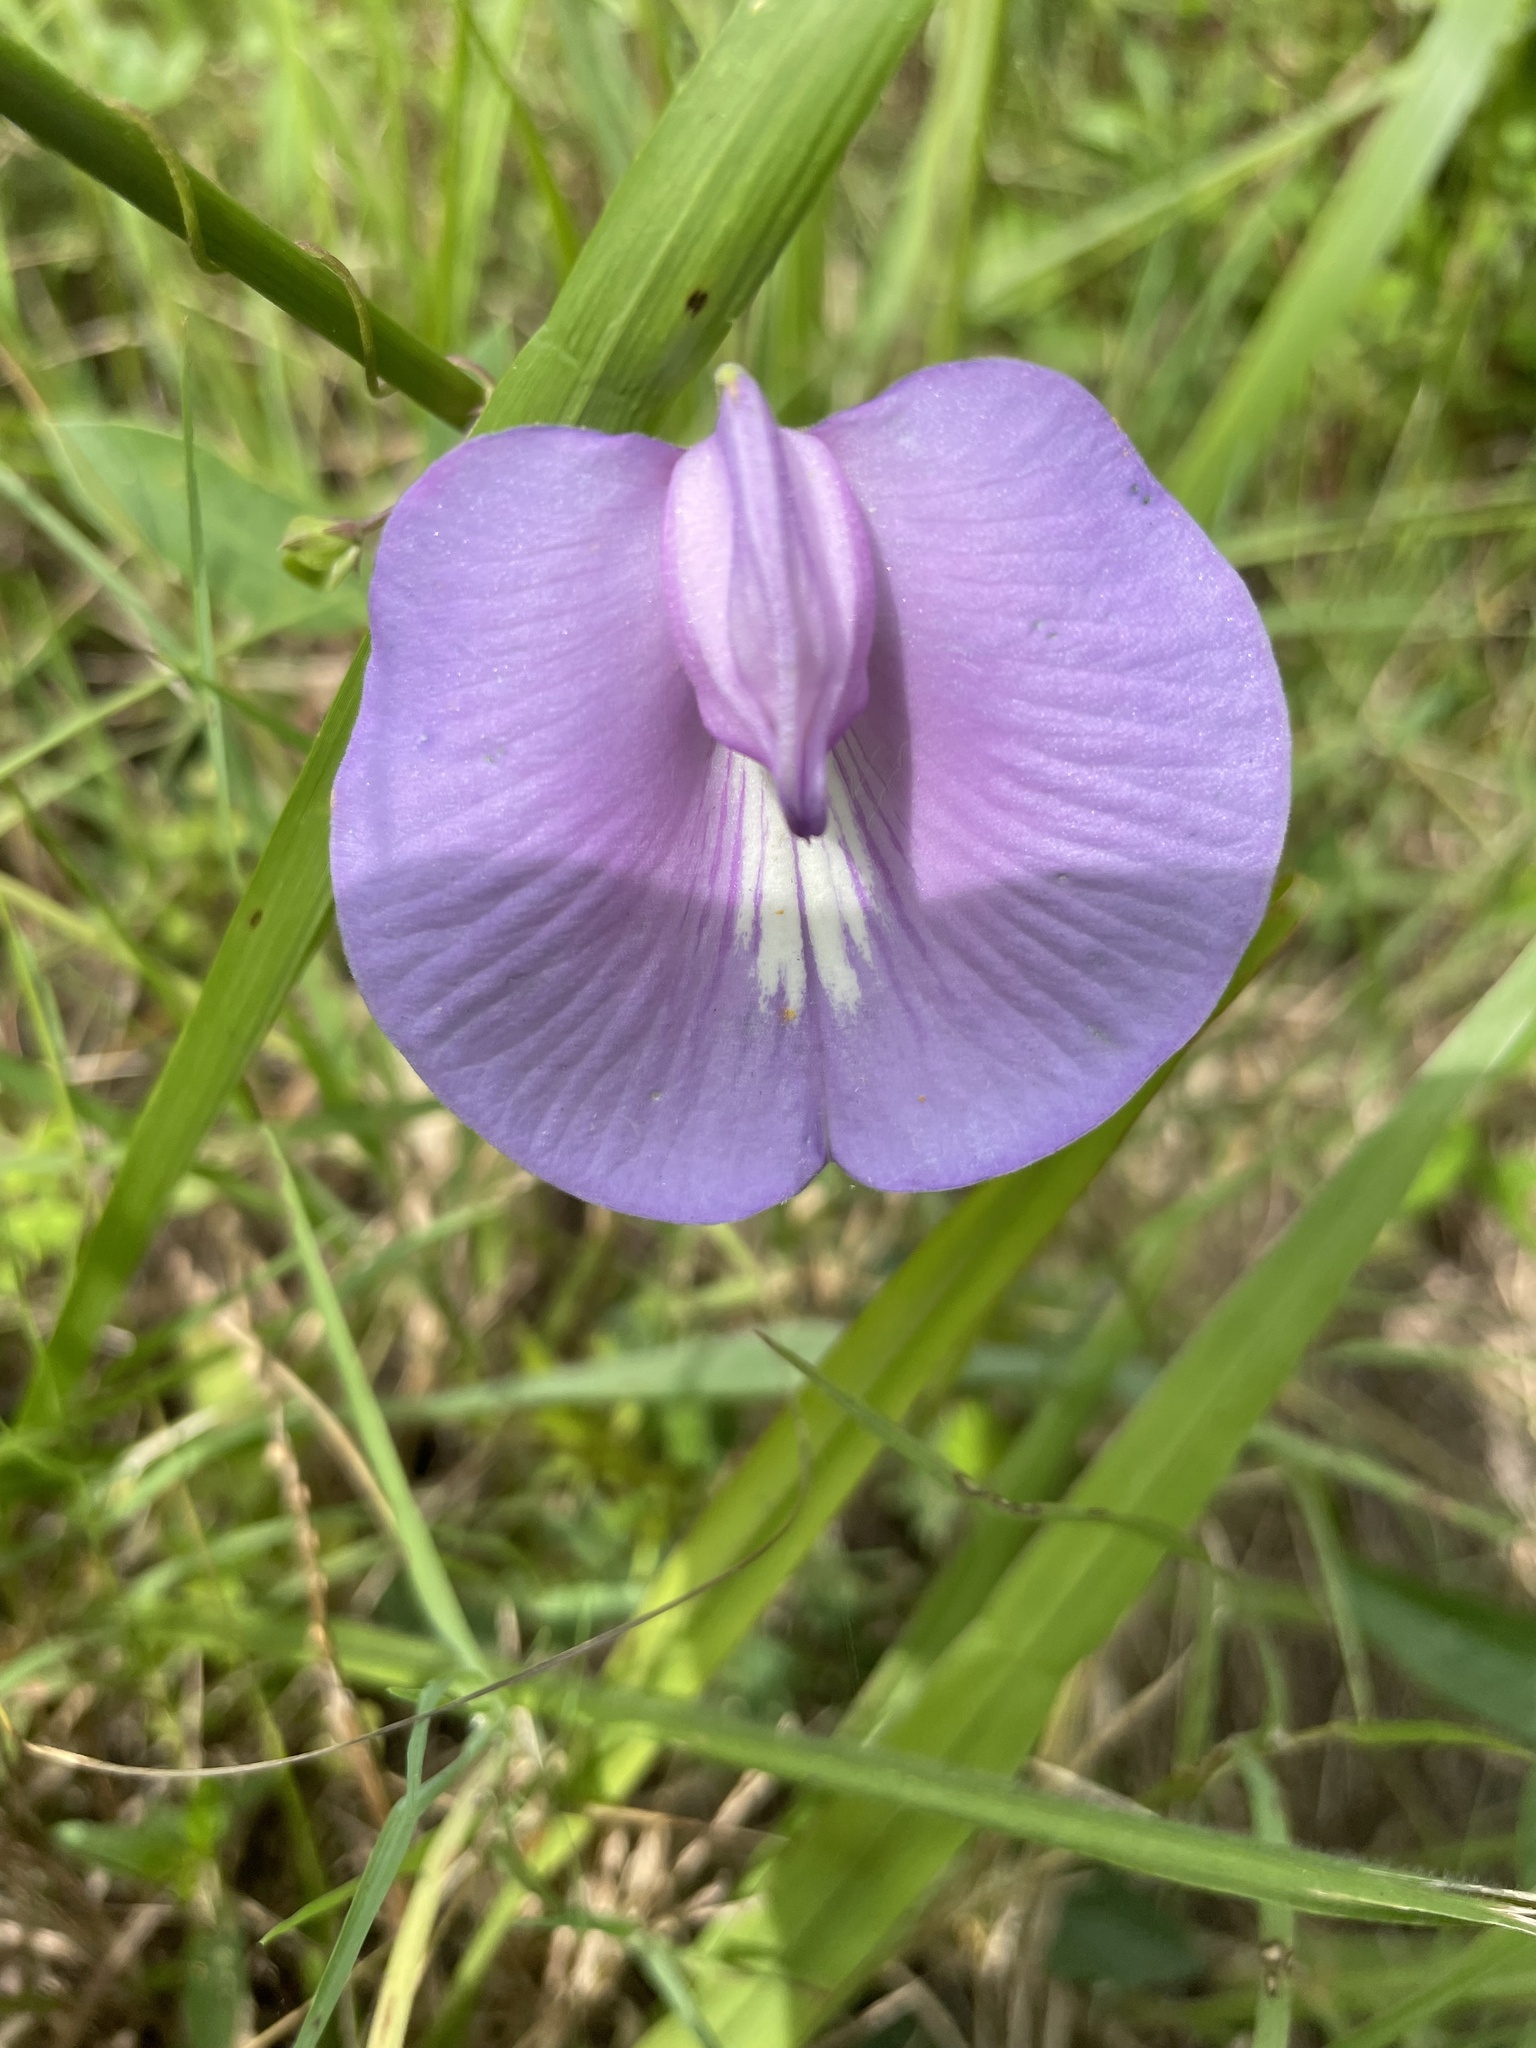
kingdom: Plantae
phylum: Tracheophyta
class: Magnoliopsida
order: Fabales
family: Fabaceae
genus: Centrosema
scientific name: Centrosema virginianum
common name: Butterfly-pea
